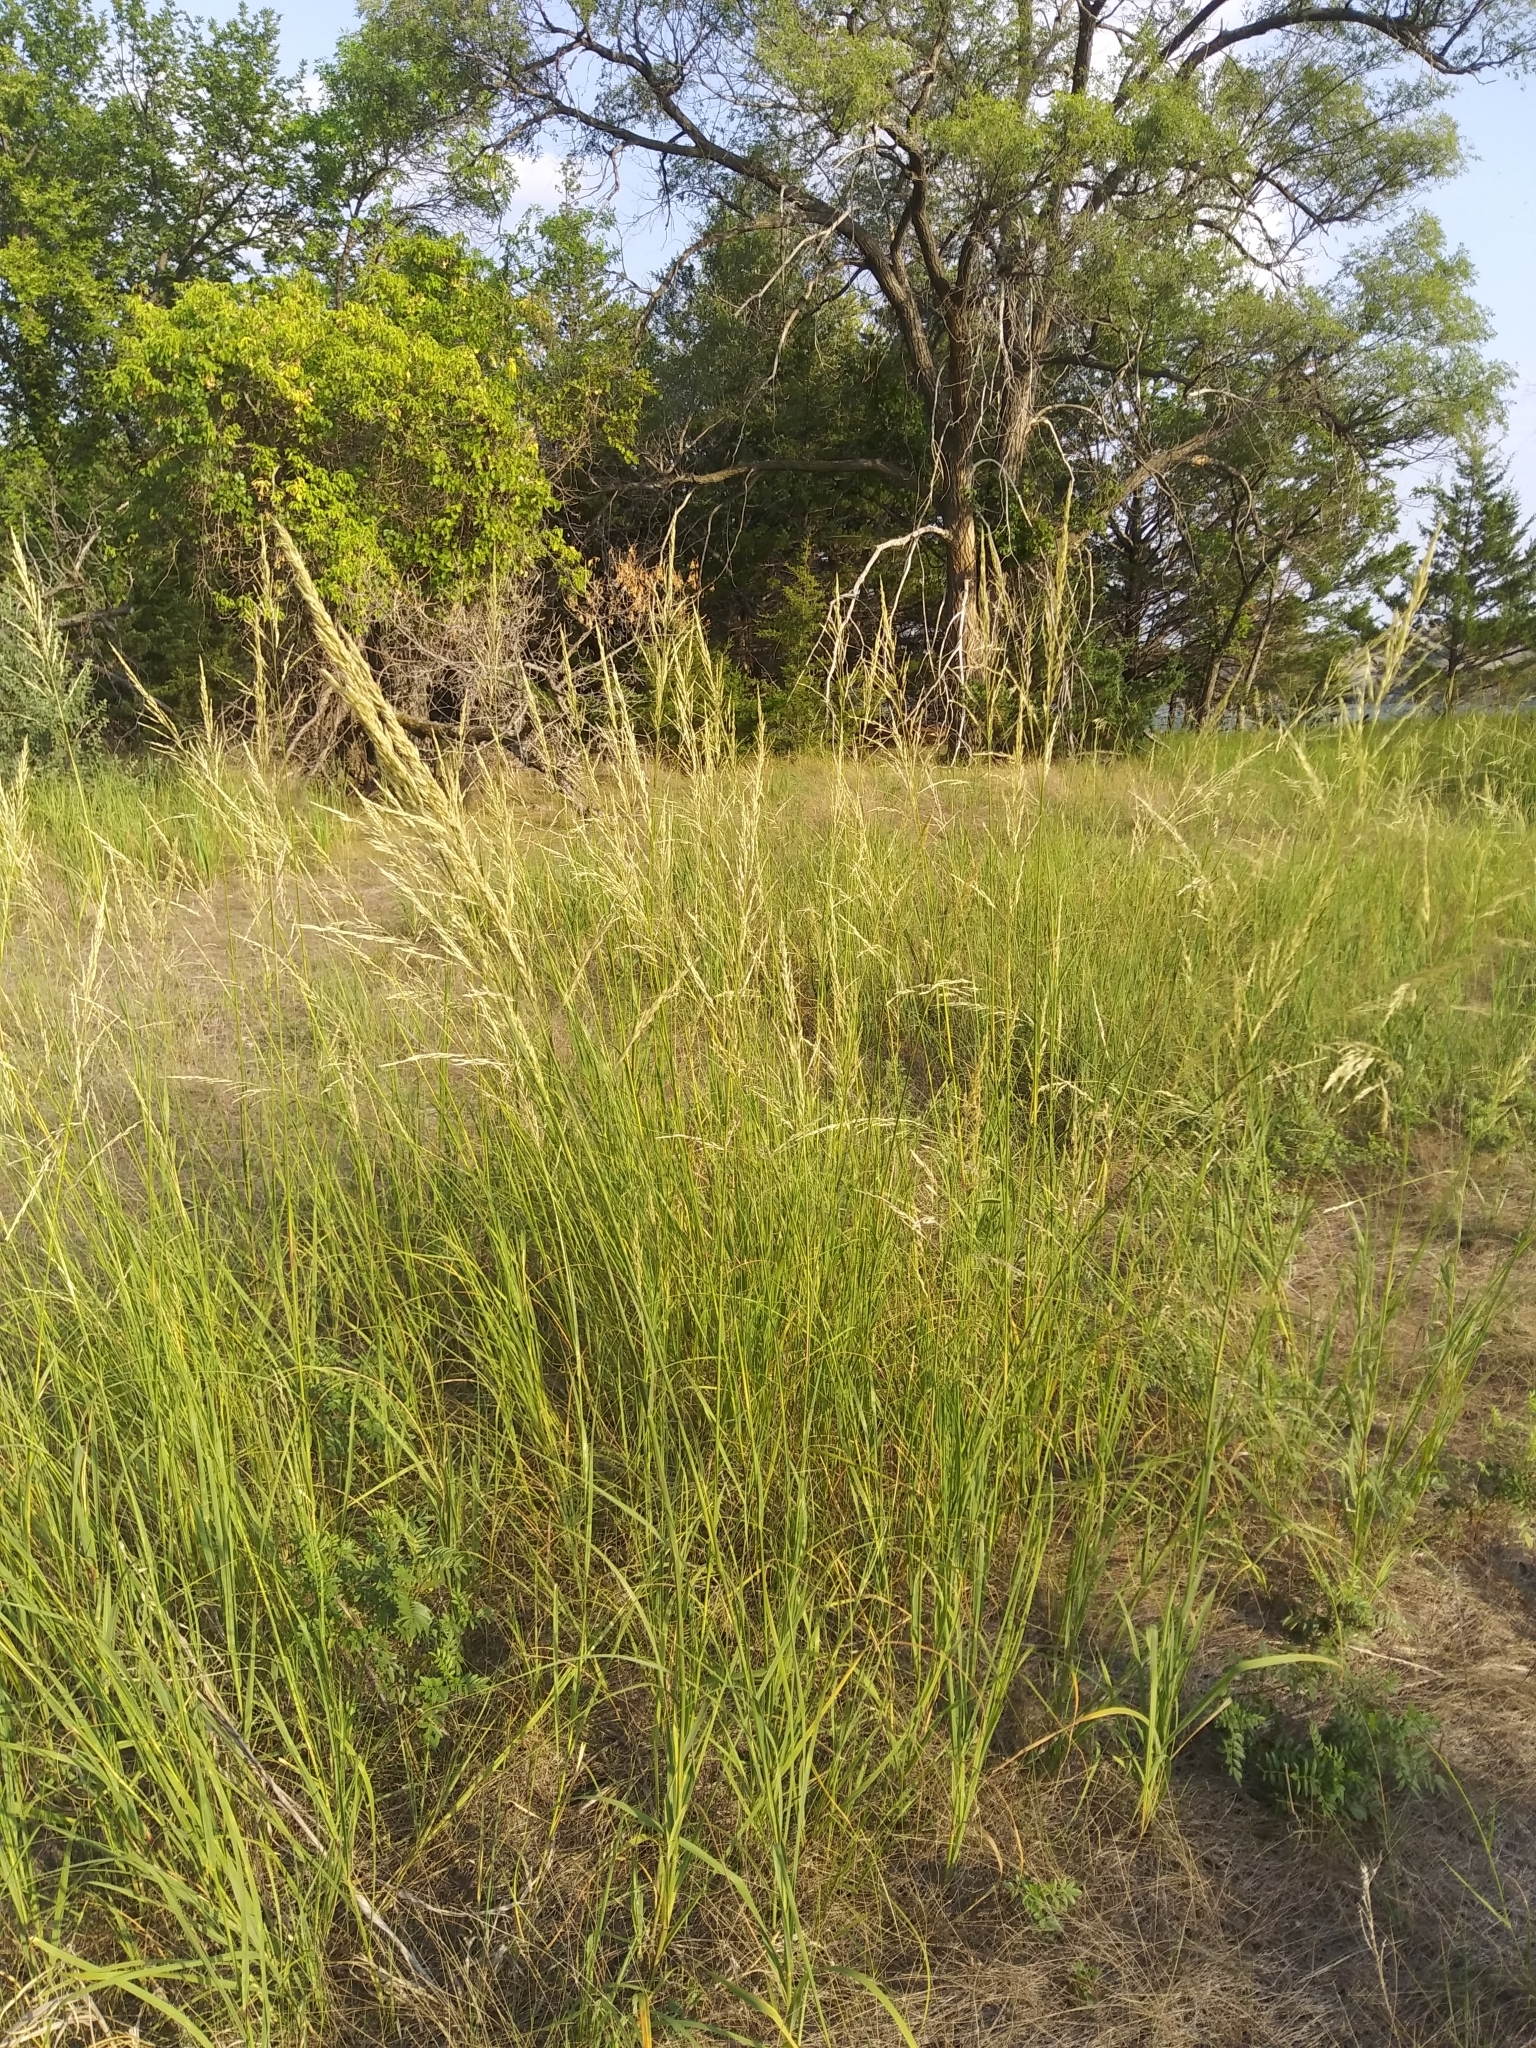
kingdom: Plantae
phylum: Tracheophyta
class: Liliopsida
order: Poales
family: Poaceae
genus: Sporobolus
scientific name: Sporobolus rigidus
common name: Prairie sandreed
